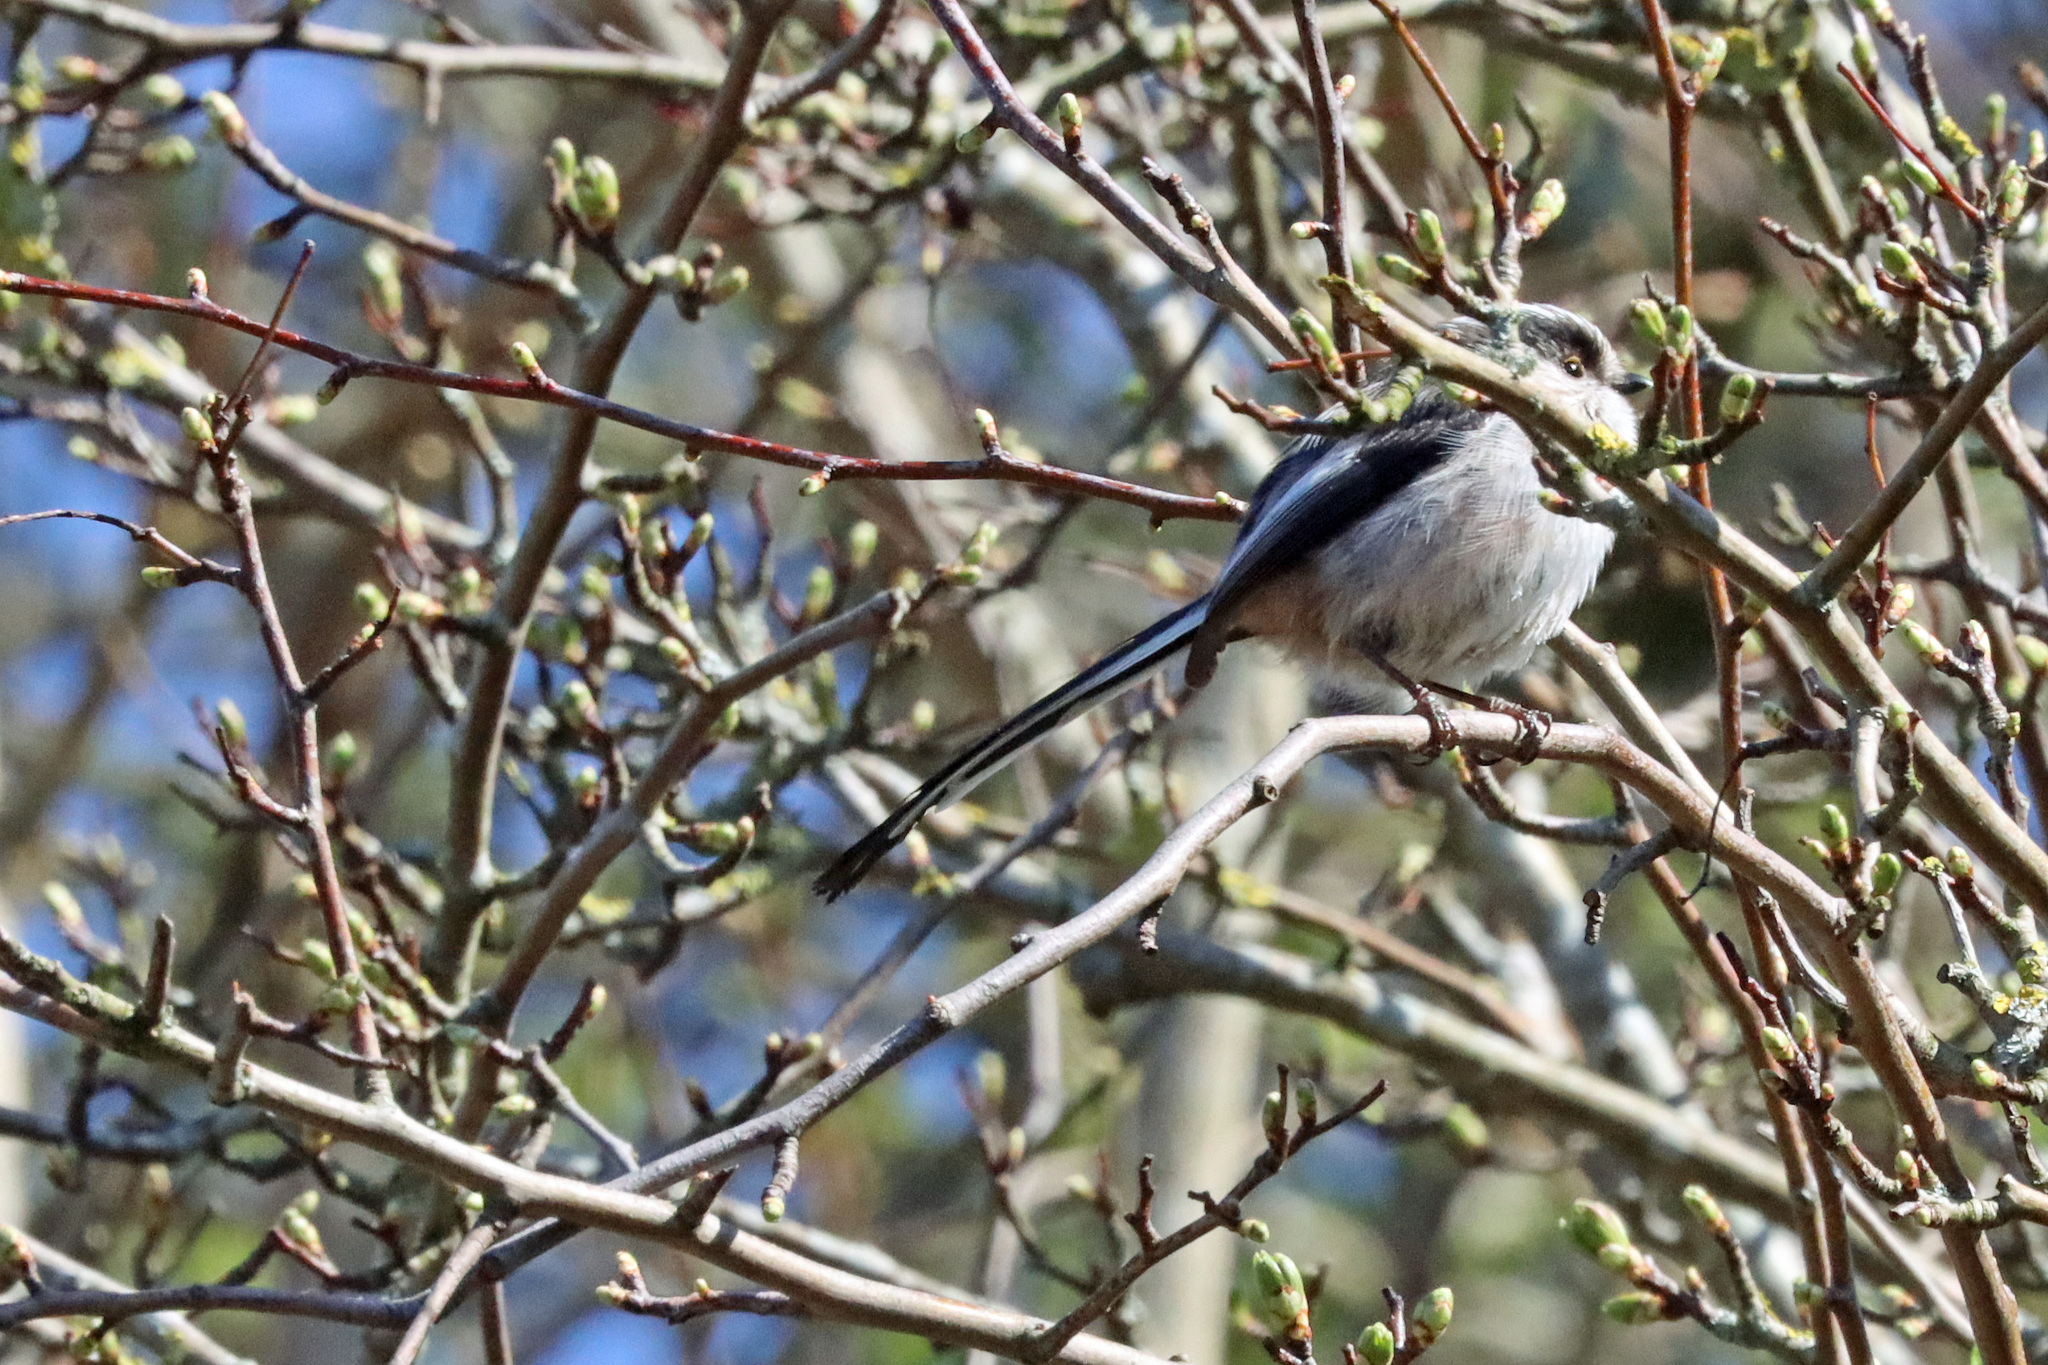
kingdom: Animalia
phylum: Chordata
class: Aves
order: Passeriformes
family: Aegithalidae
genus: Aegithalos
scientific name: Aegithalos caudatus
